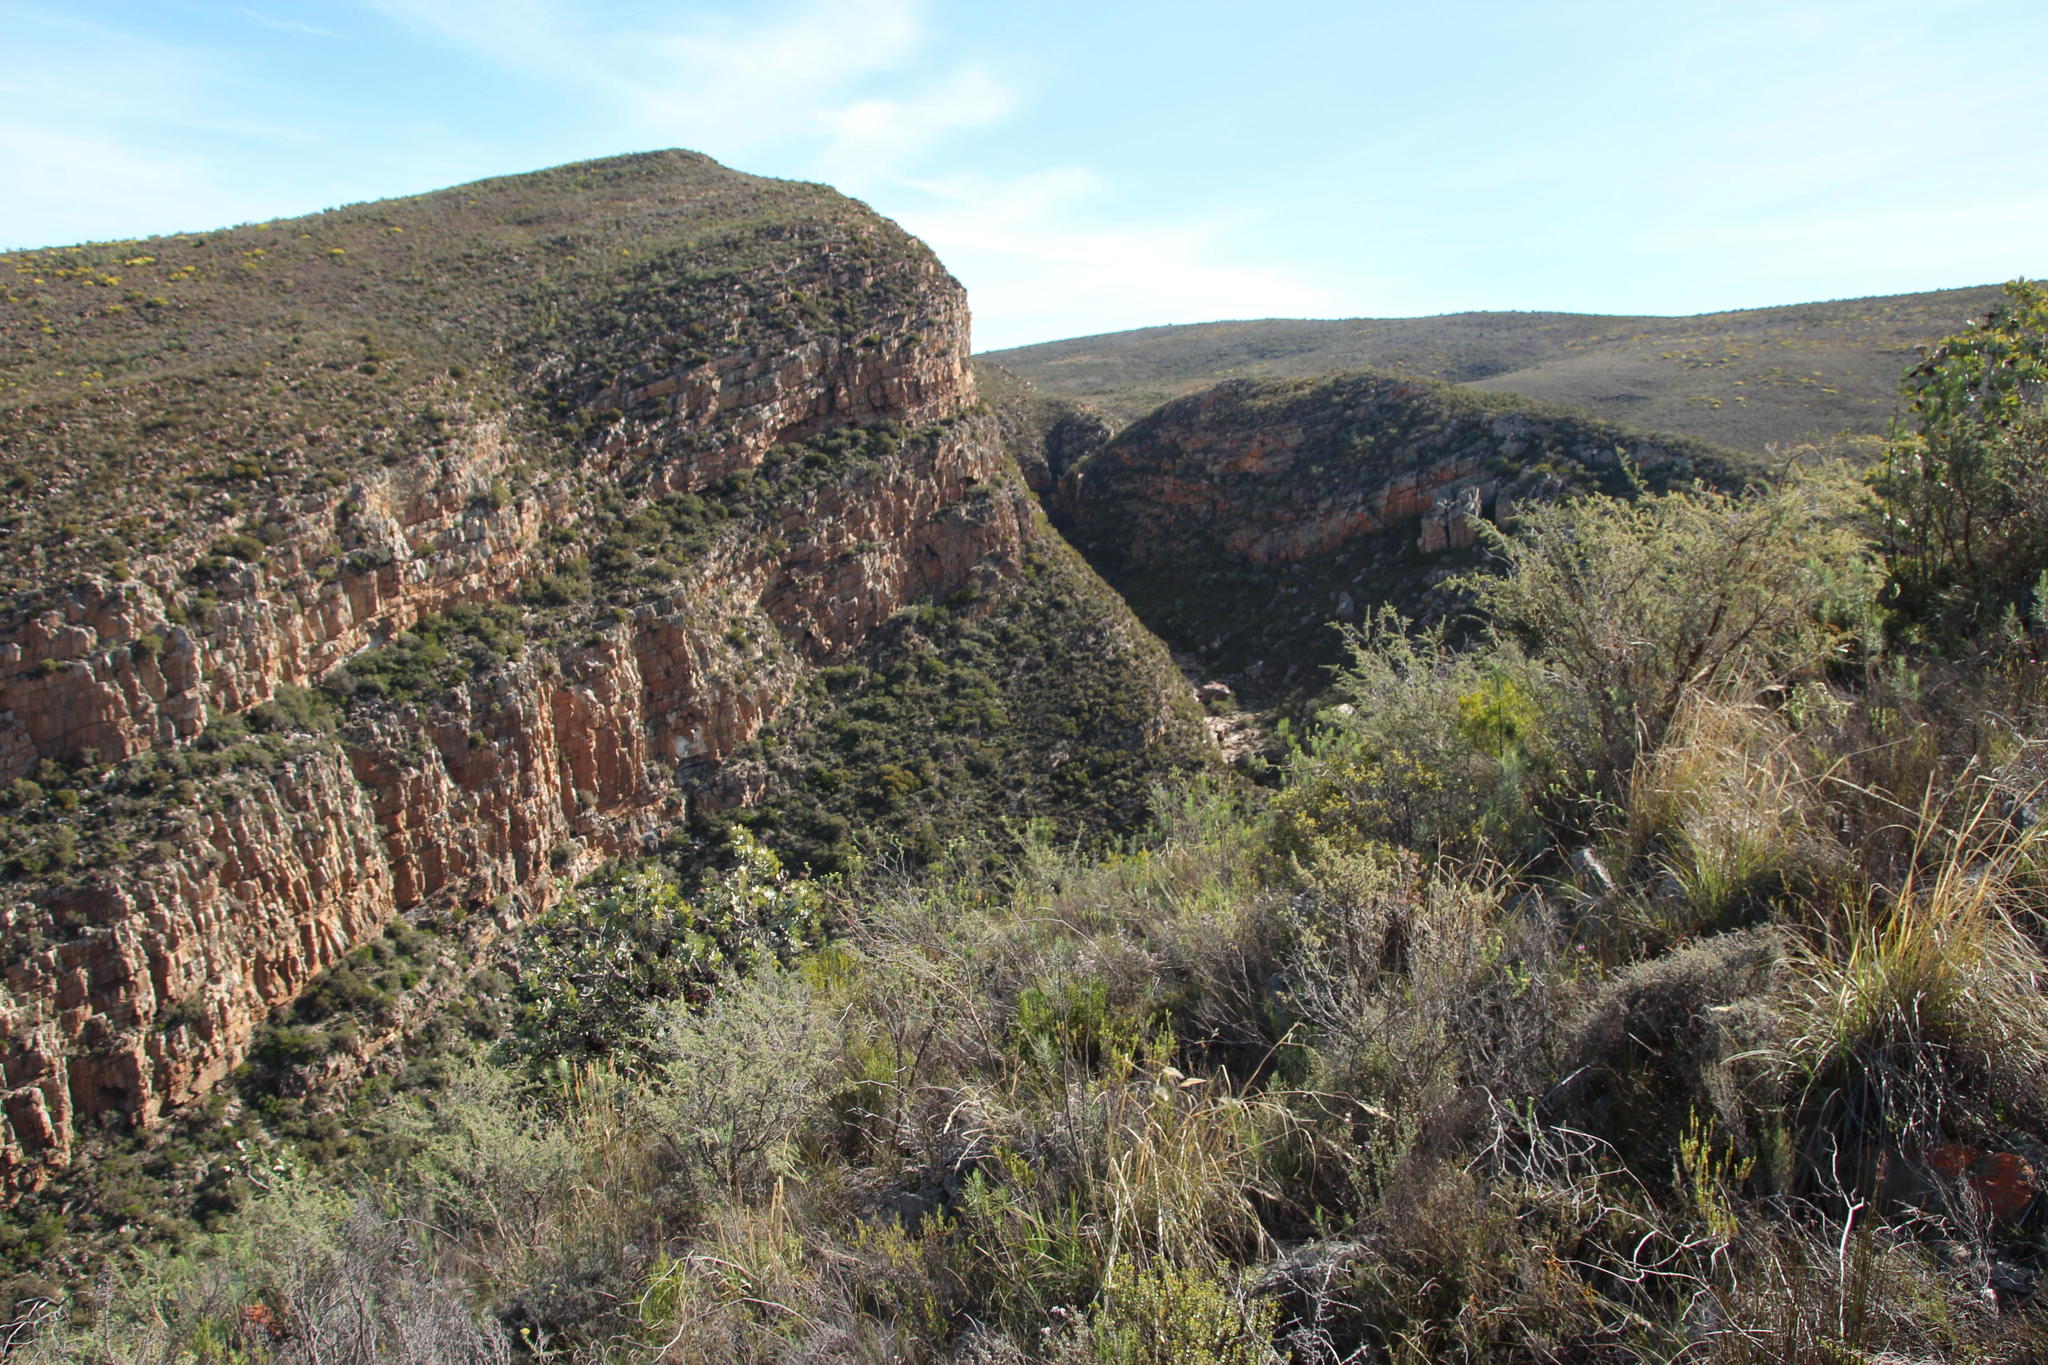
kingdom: Plantae
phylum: Tracheophyta
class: Magnoliopsida
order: Fabales
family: Fabaceae
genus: Aspalathus
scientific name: Aspalathus rigidifolia
